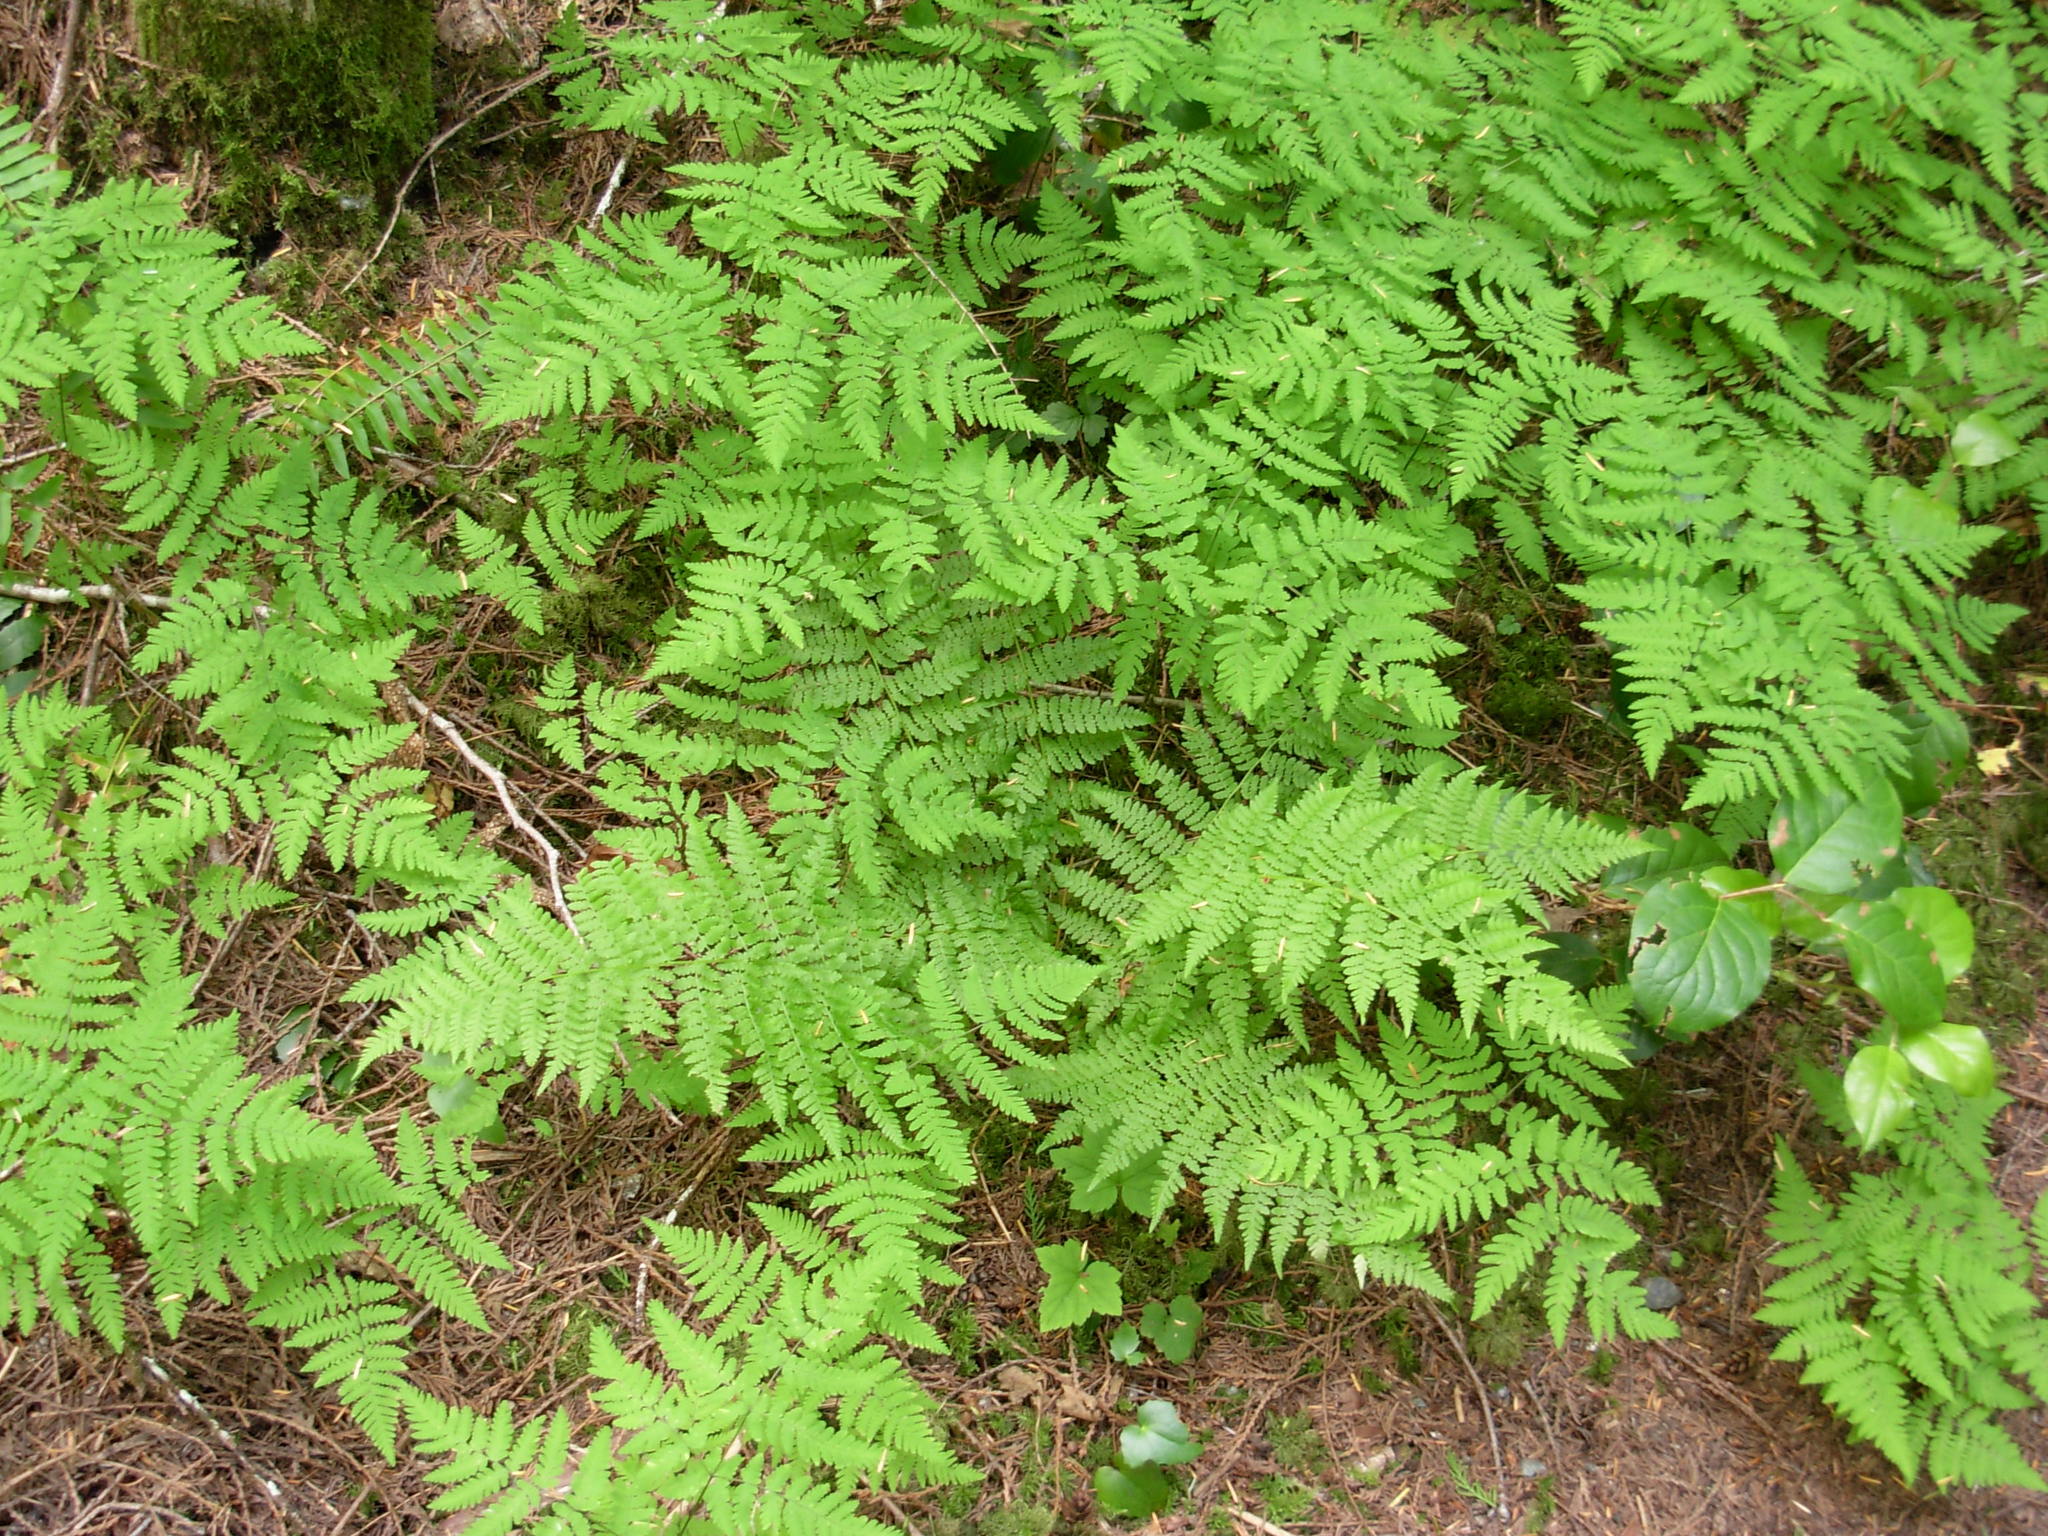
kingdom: Plantae
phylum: Tracheophyta
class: Polypodiopsida
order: Polypodiales
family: Cystopteridaceae
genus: Gymnocarpium
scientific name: Gymnocarpium disjunctum
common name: Western oak fern
